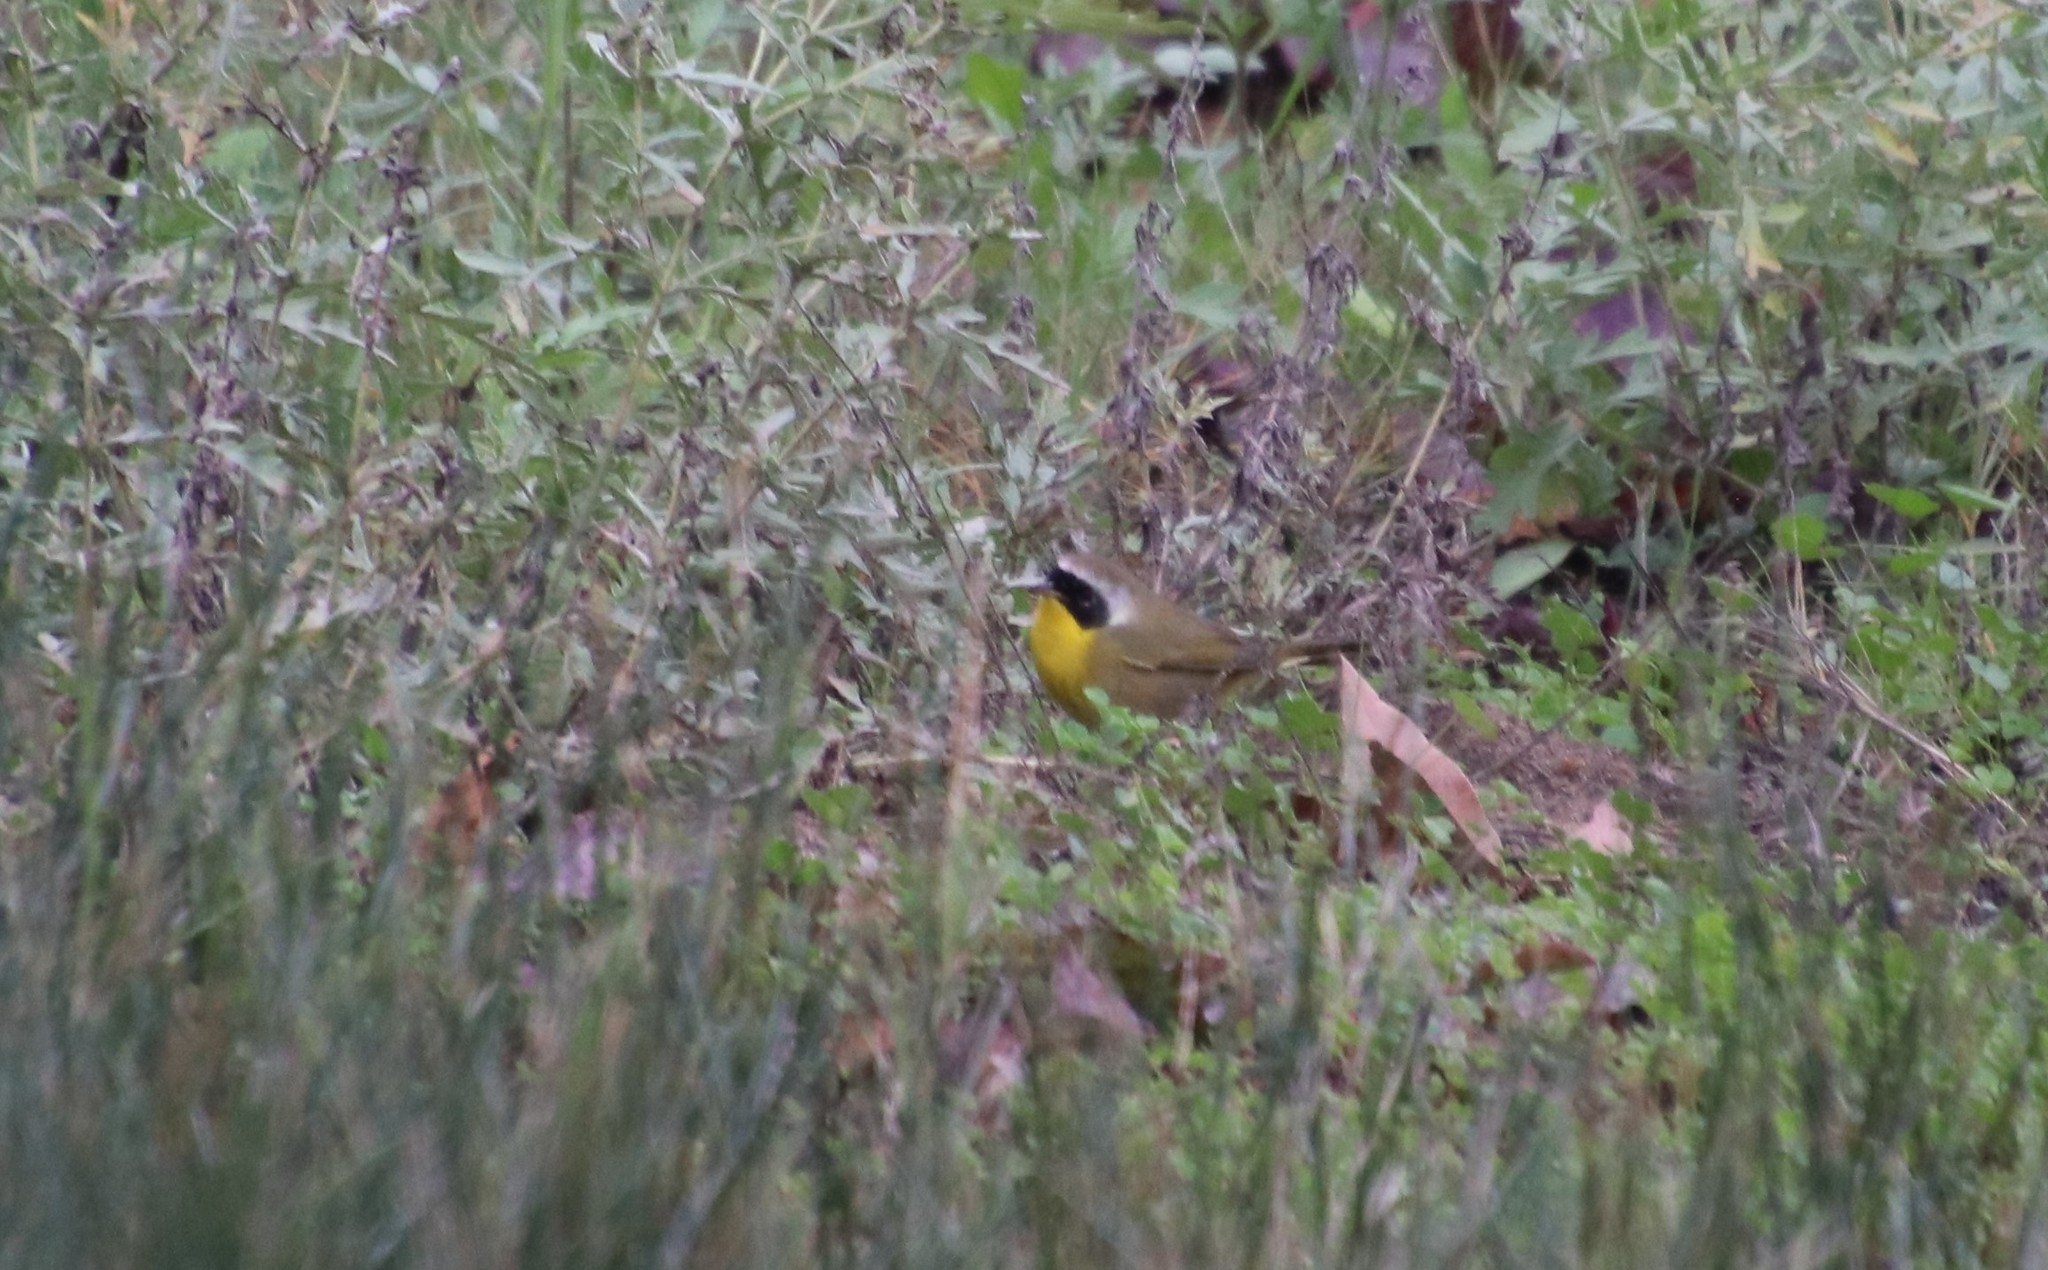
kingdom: Animalia
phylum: Chordata
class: Aves
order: Passeriformes
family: Parulidae
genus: Geothlypis
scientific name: Geothlypis trichas
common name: Common yellowthroat
